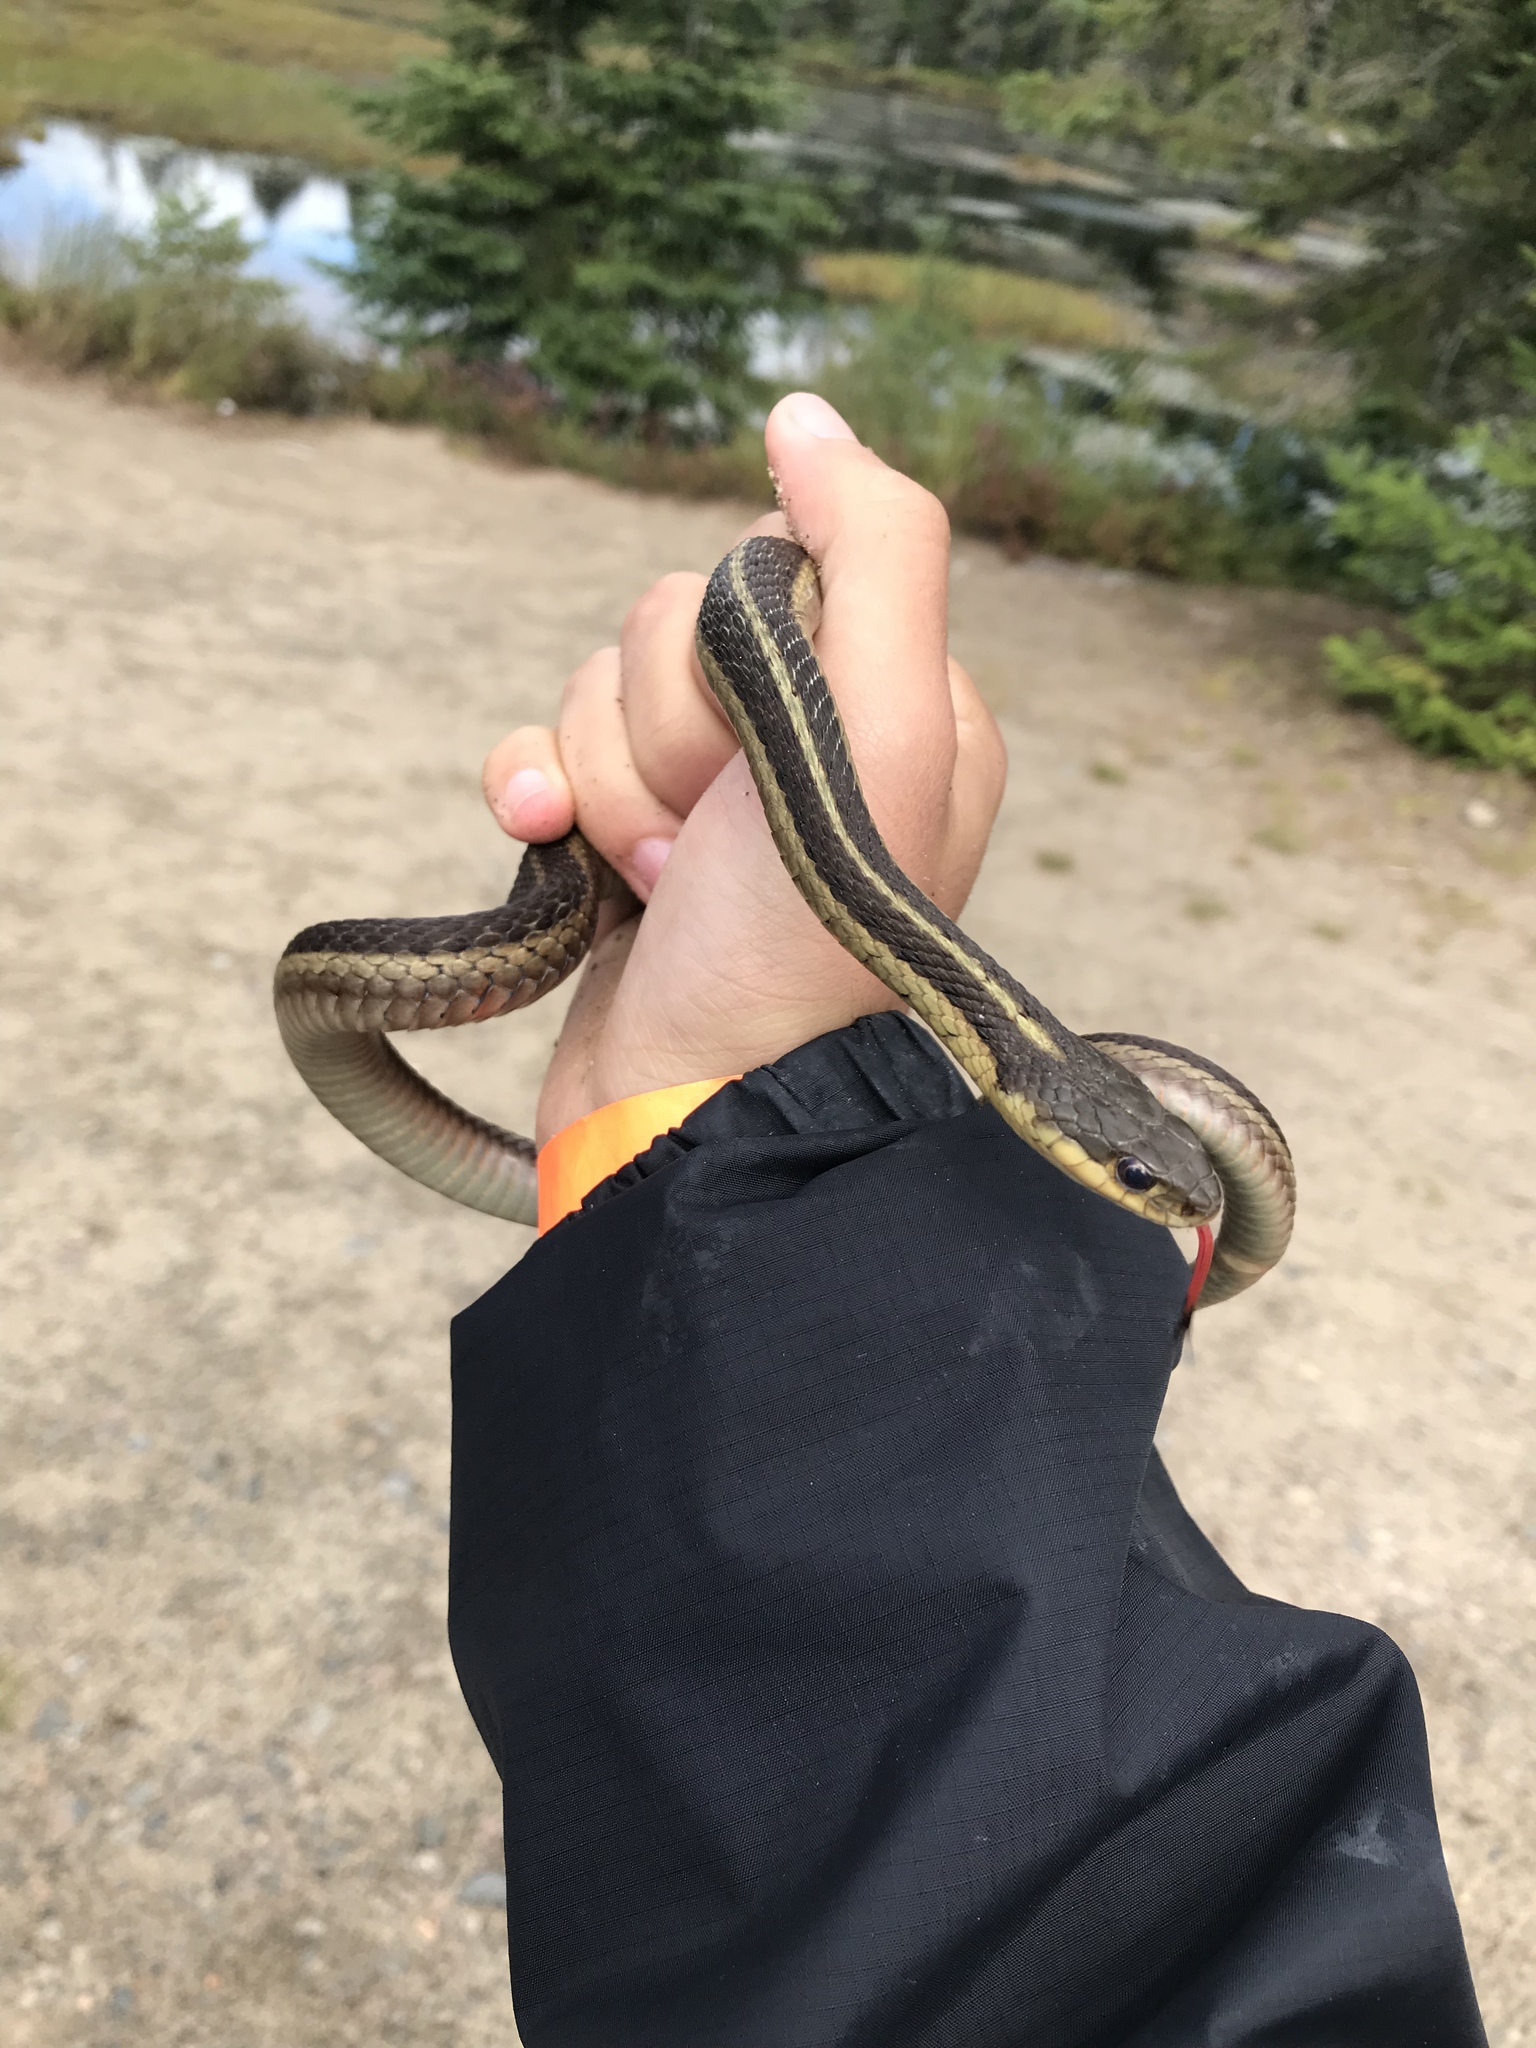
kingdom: Animalia
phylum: Chordata
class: Squamata
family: Colubridae
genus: Thamnophis
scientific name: Thamnophis sirtalis
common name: Common garter snake
